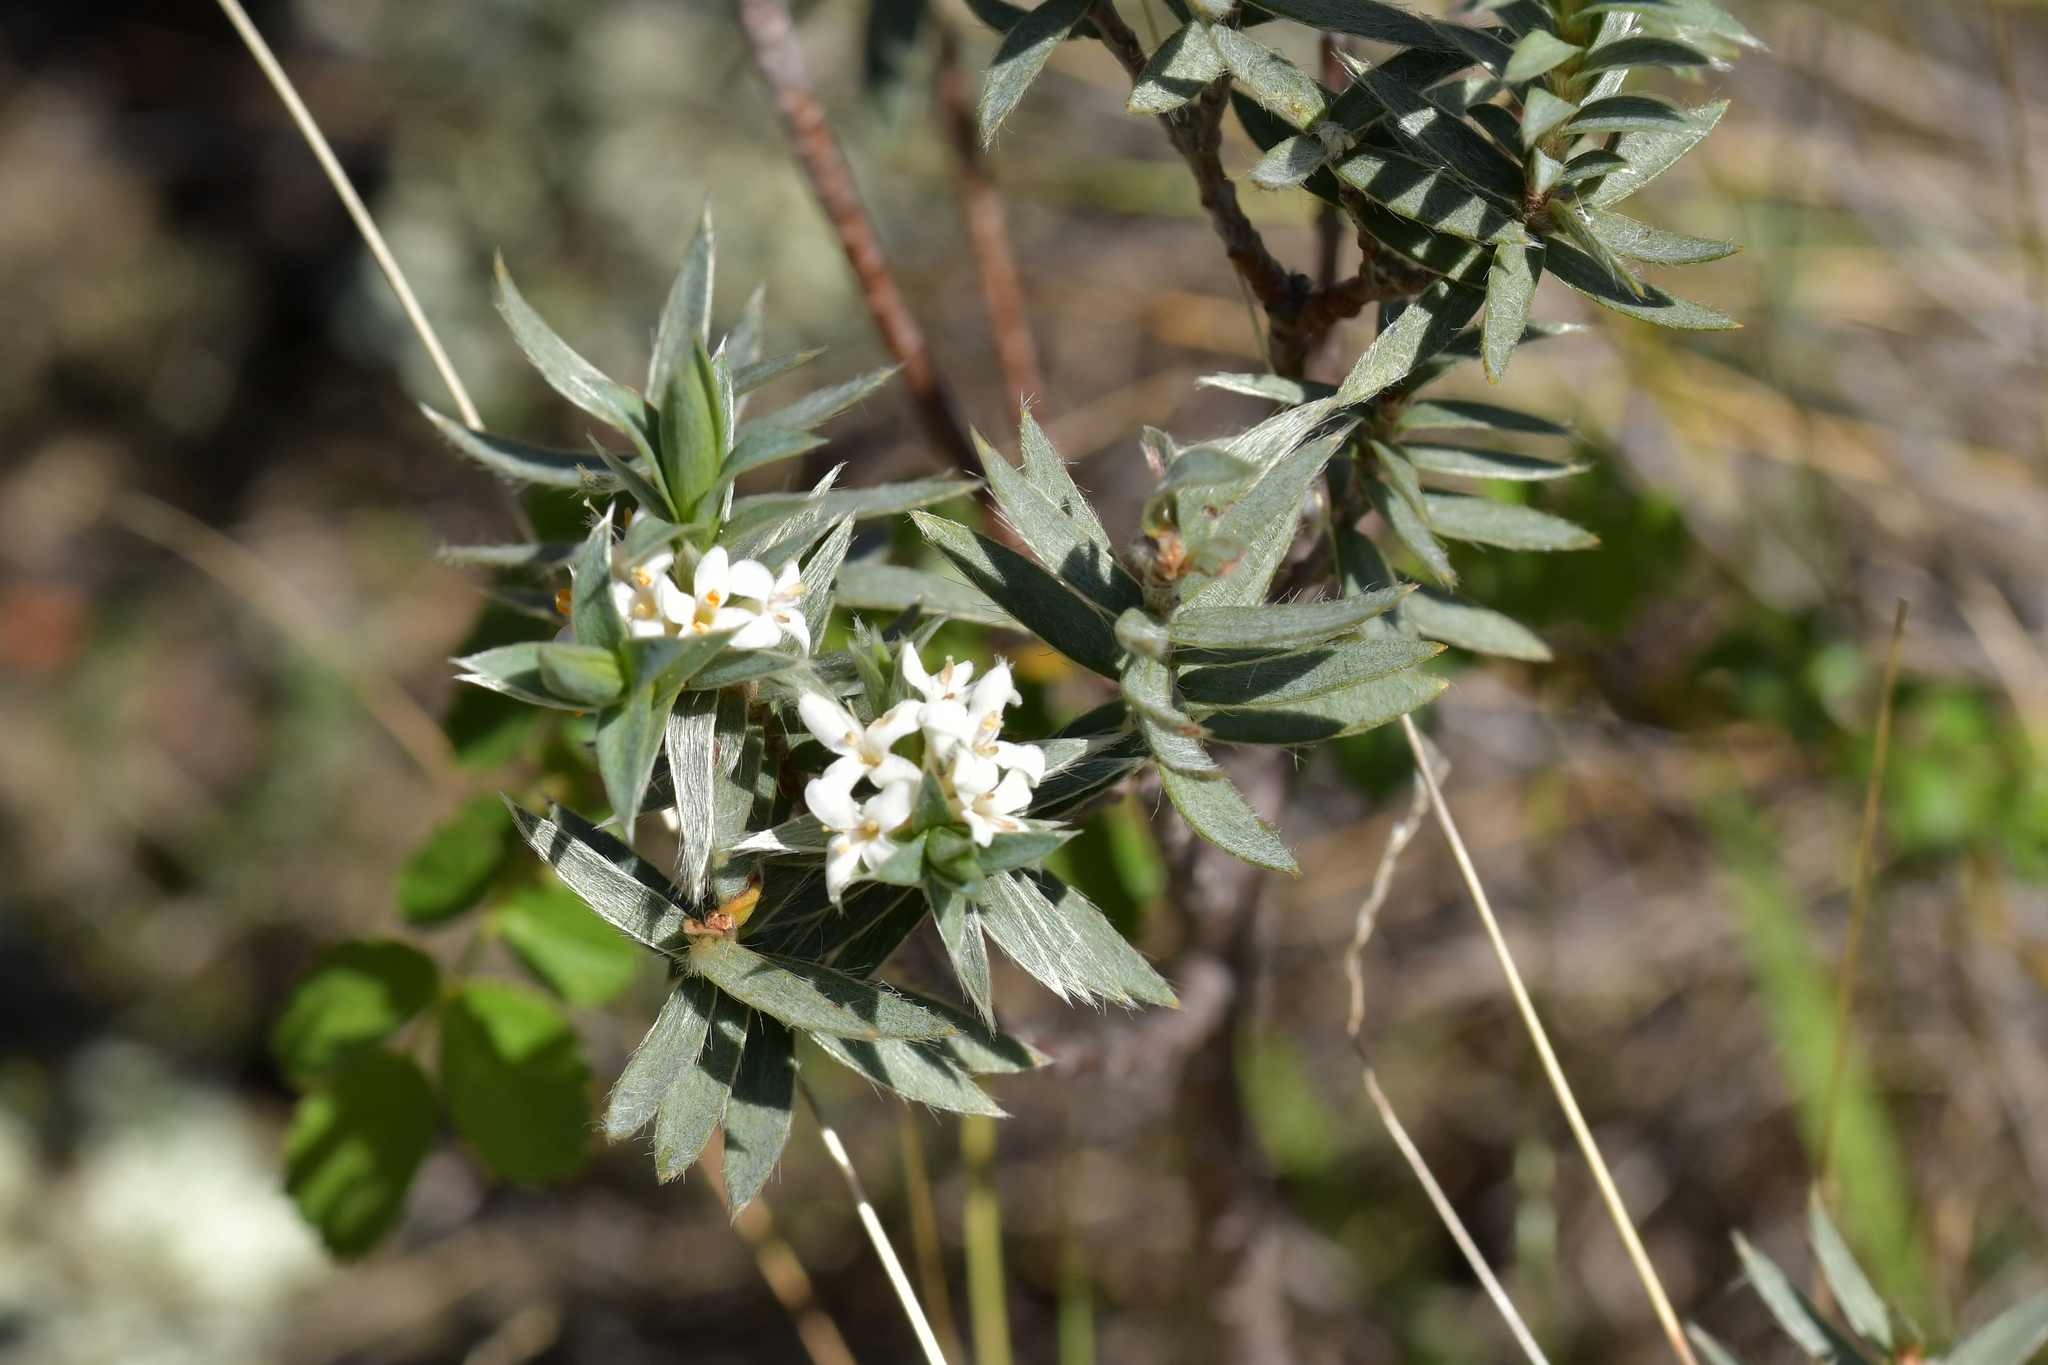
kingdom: Plantae
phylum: Tracheophyta
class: Magnoliopsida
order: Malvales
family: Thymelaeaceae
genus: Pimelea
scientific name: Pimelea aridula
